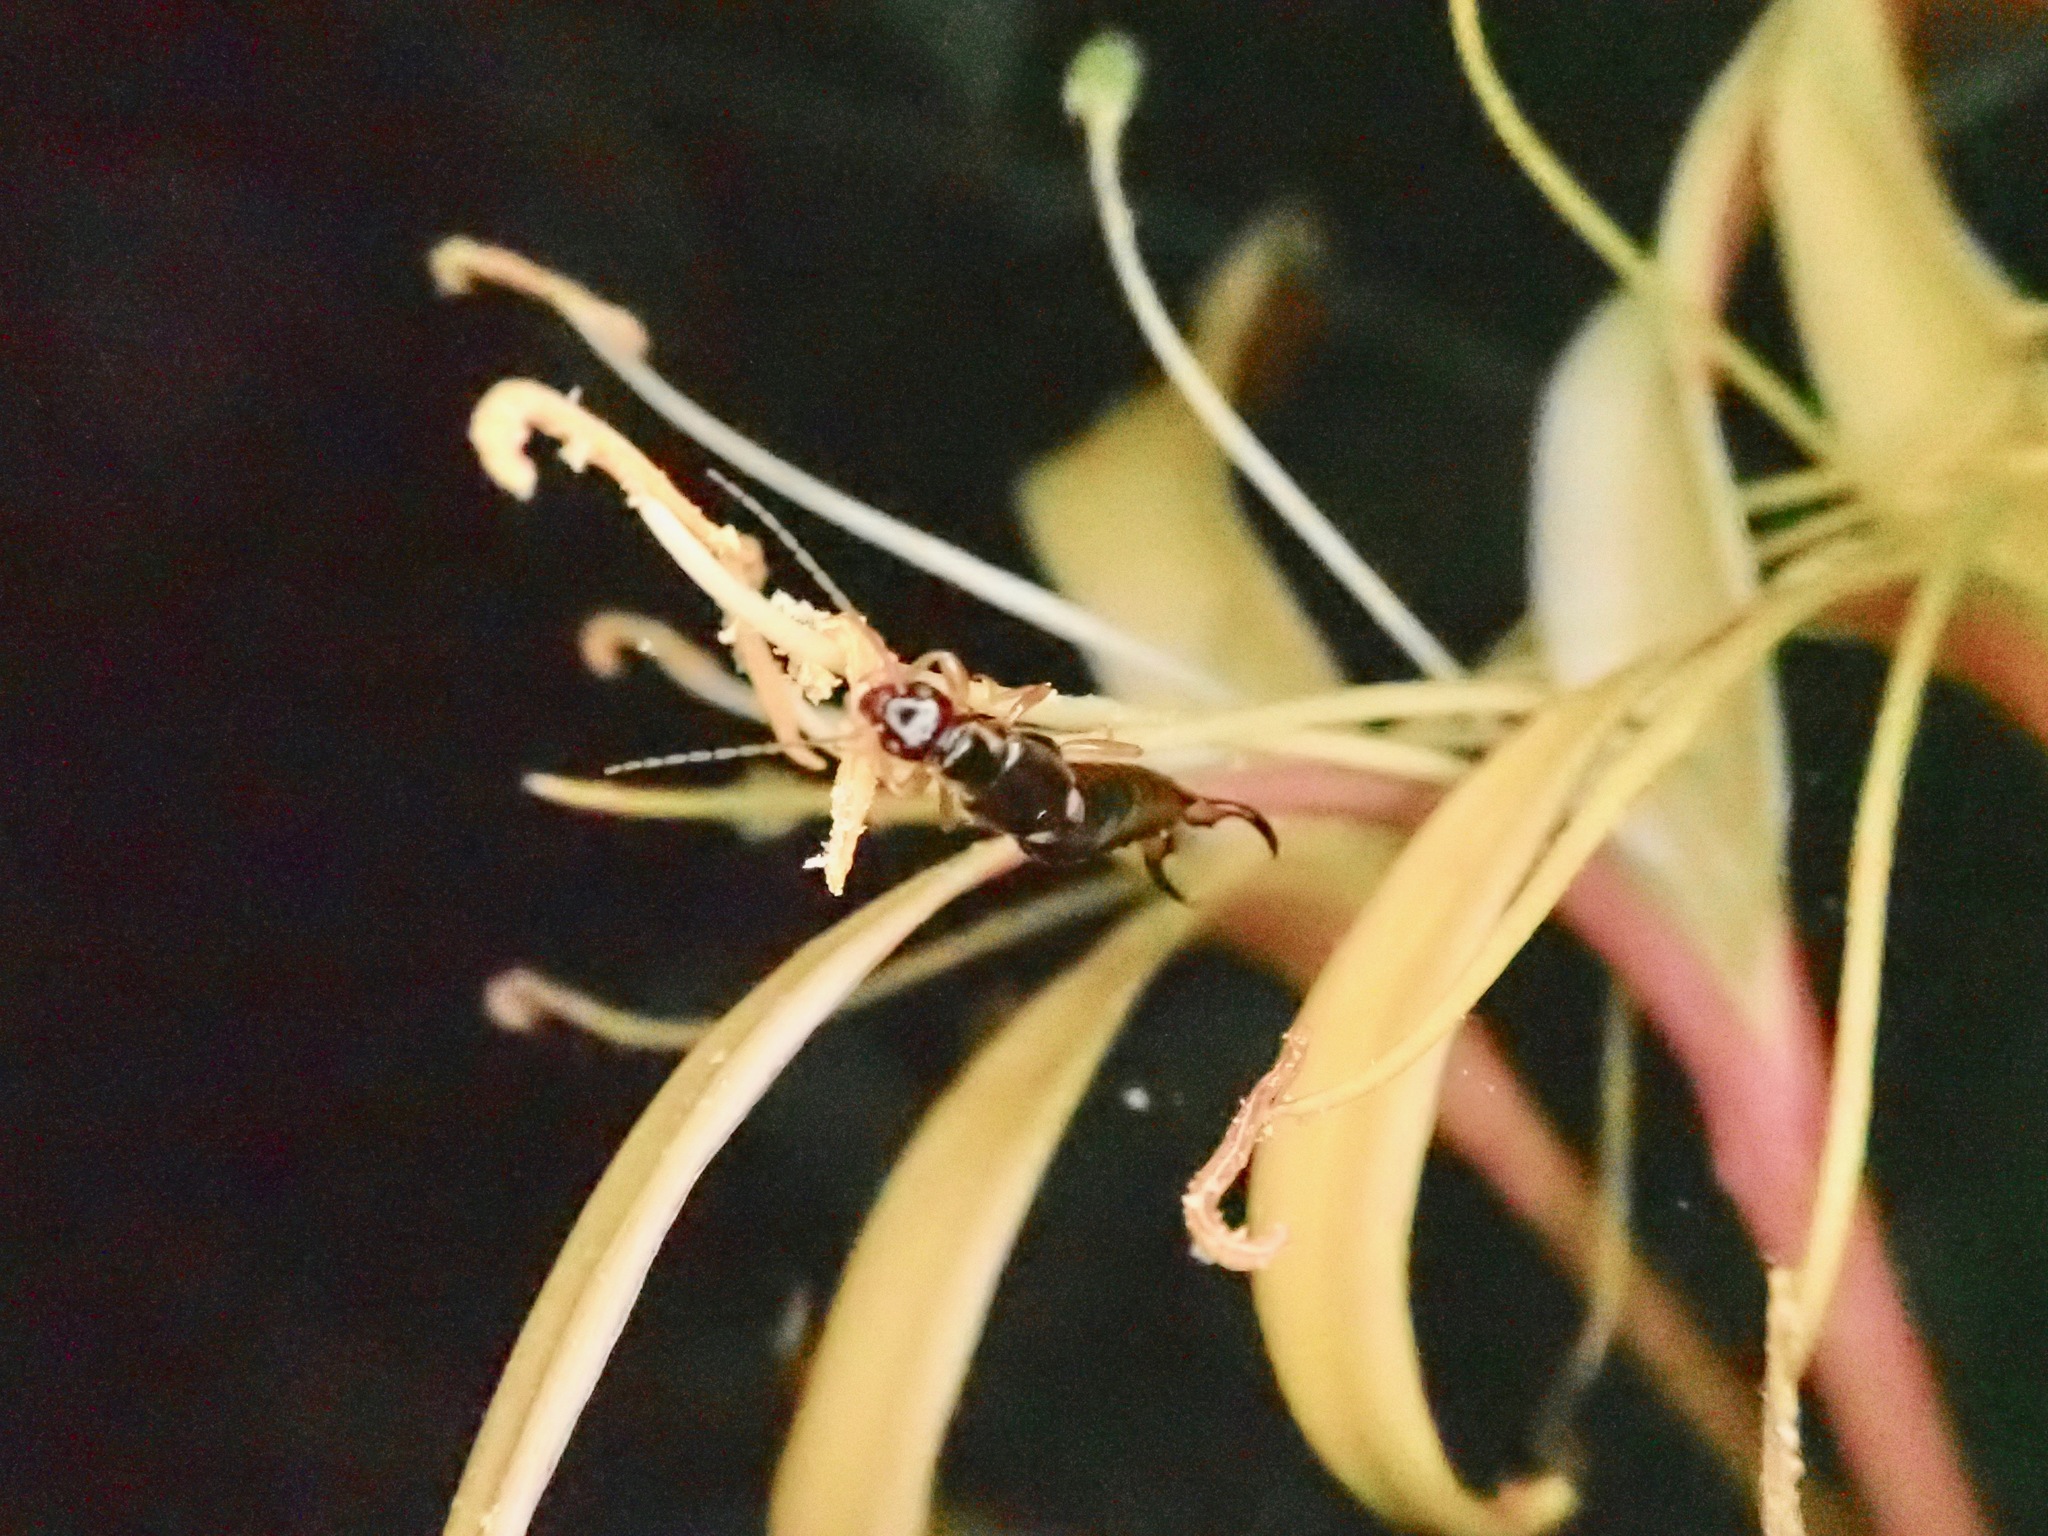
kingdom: Animalia
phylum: Arthropoda
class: Insecta
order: Dermaptera
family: Forficulidae
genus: Forficula
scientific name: Forficula
